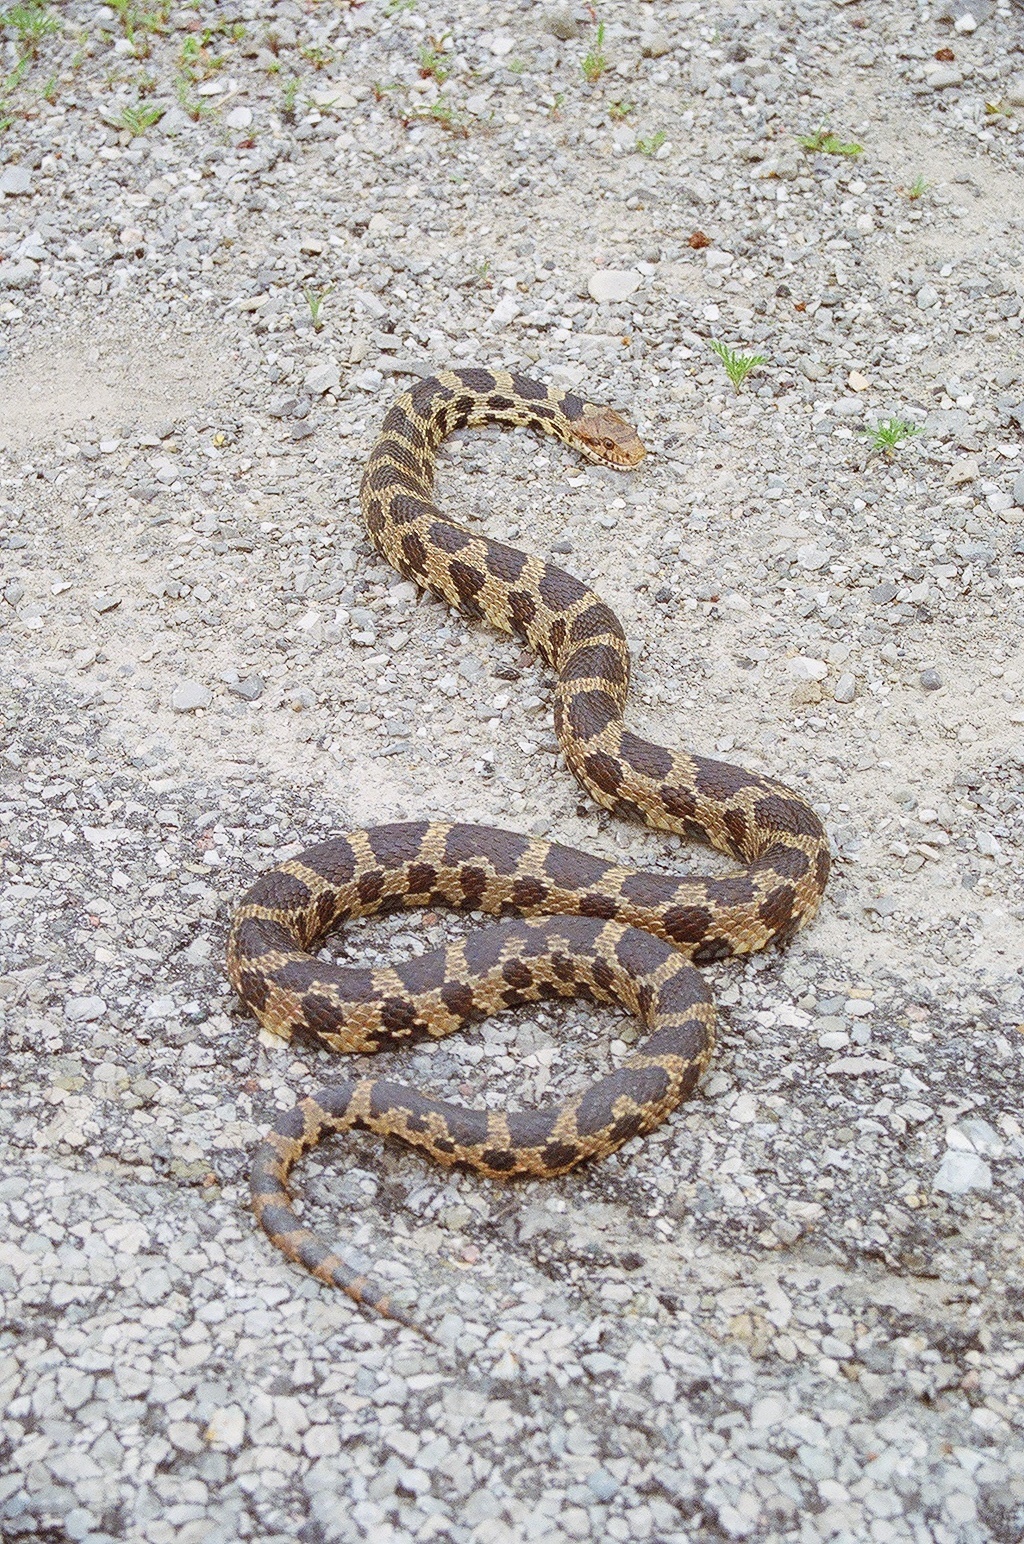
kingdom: Animalia
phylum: Chordata
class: Squamata
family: Colubridae
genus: Pantherophis
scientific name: Pantherophis vulpinus
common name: Eastern fox snake
